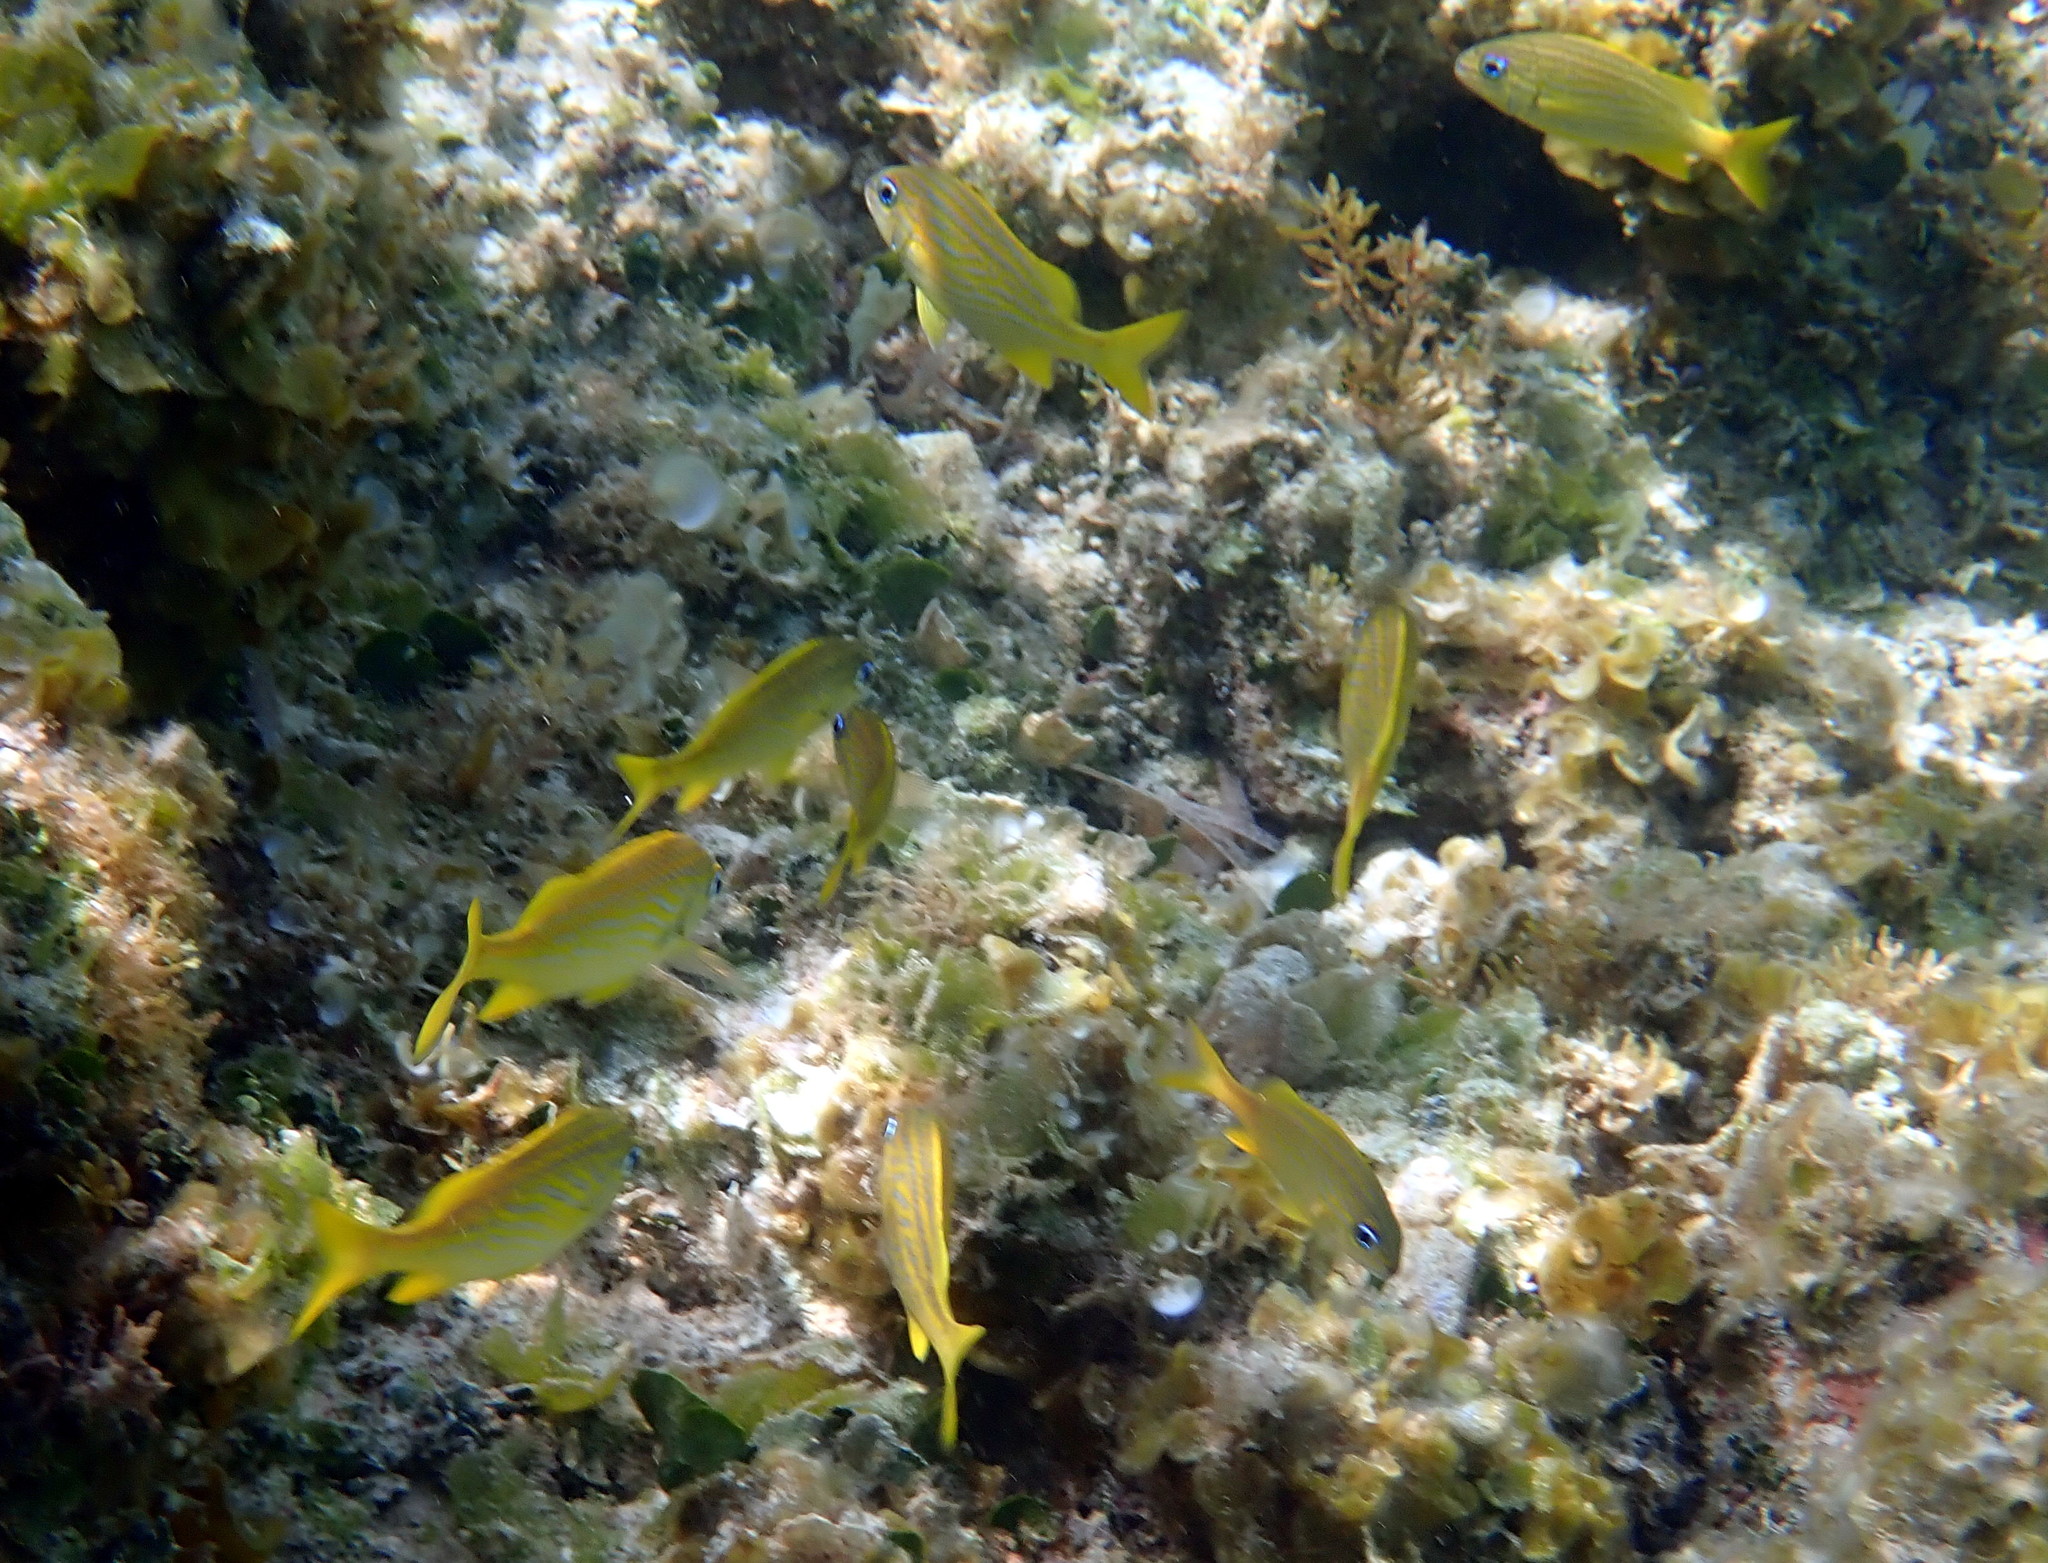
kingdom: Animalia
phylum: Chordata
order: Perciformes
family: Haemulidae
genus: Haemulon
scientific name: Haemulon flavolineatum
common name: French grunt
